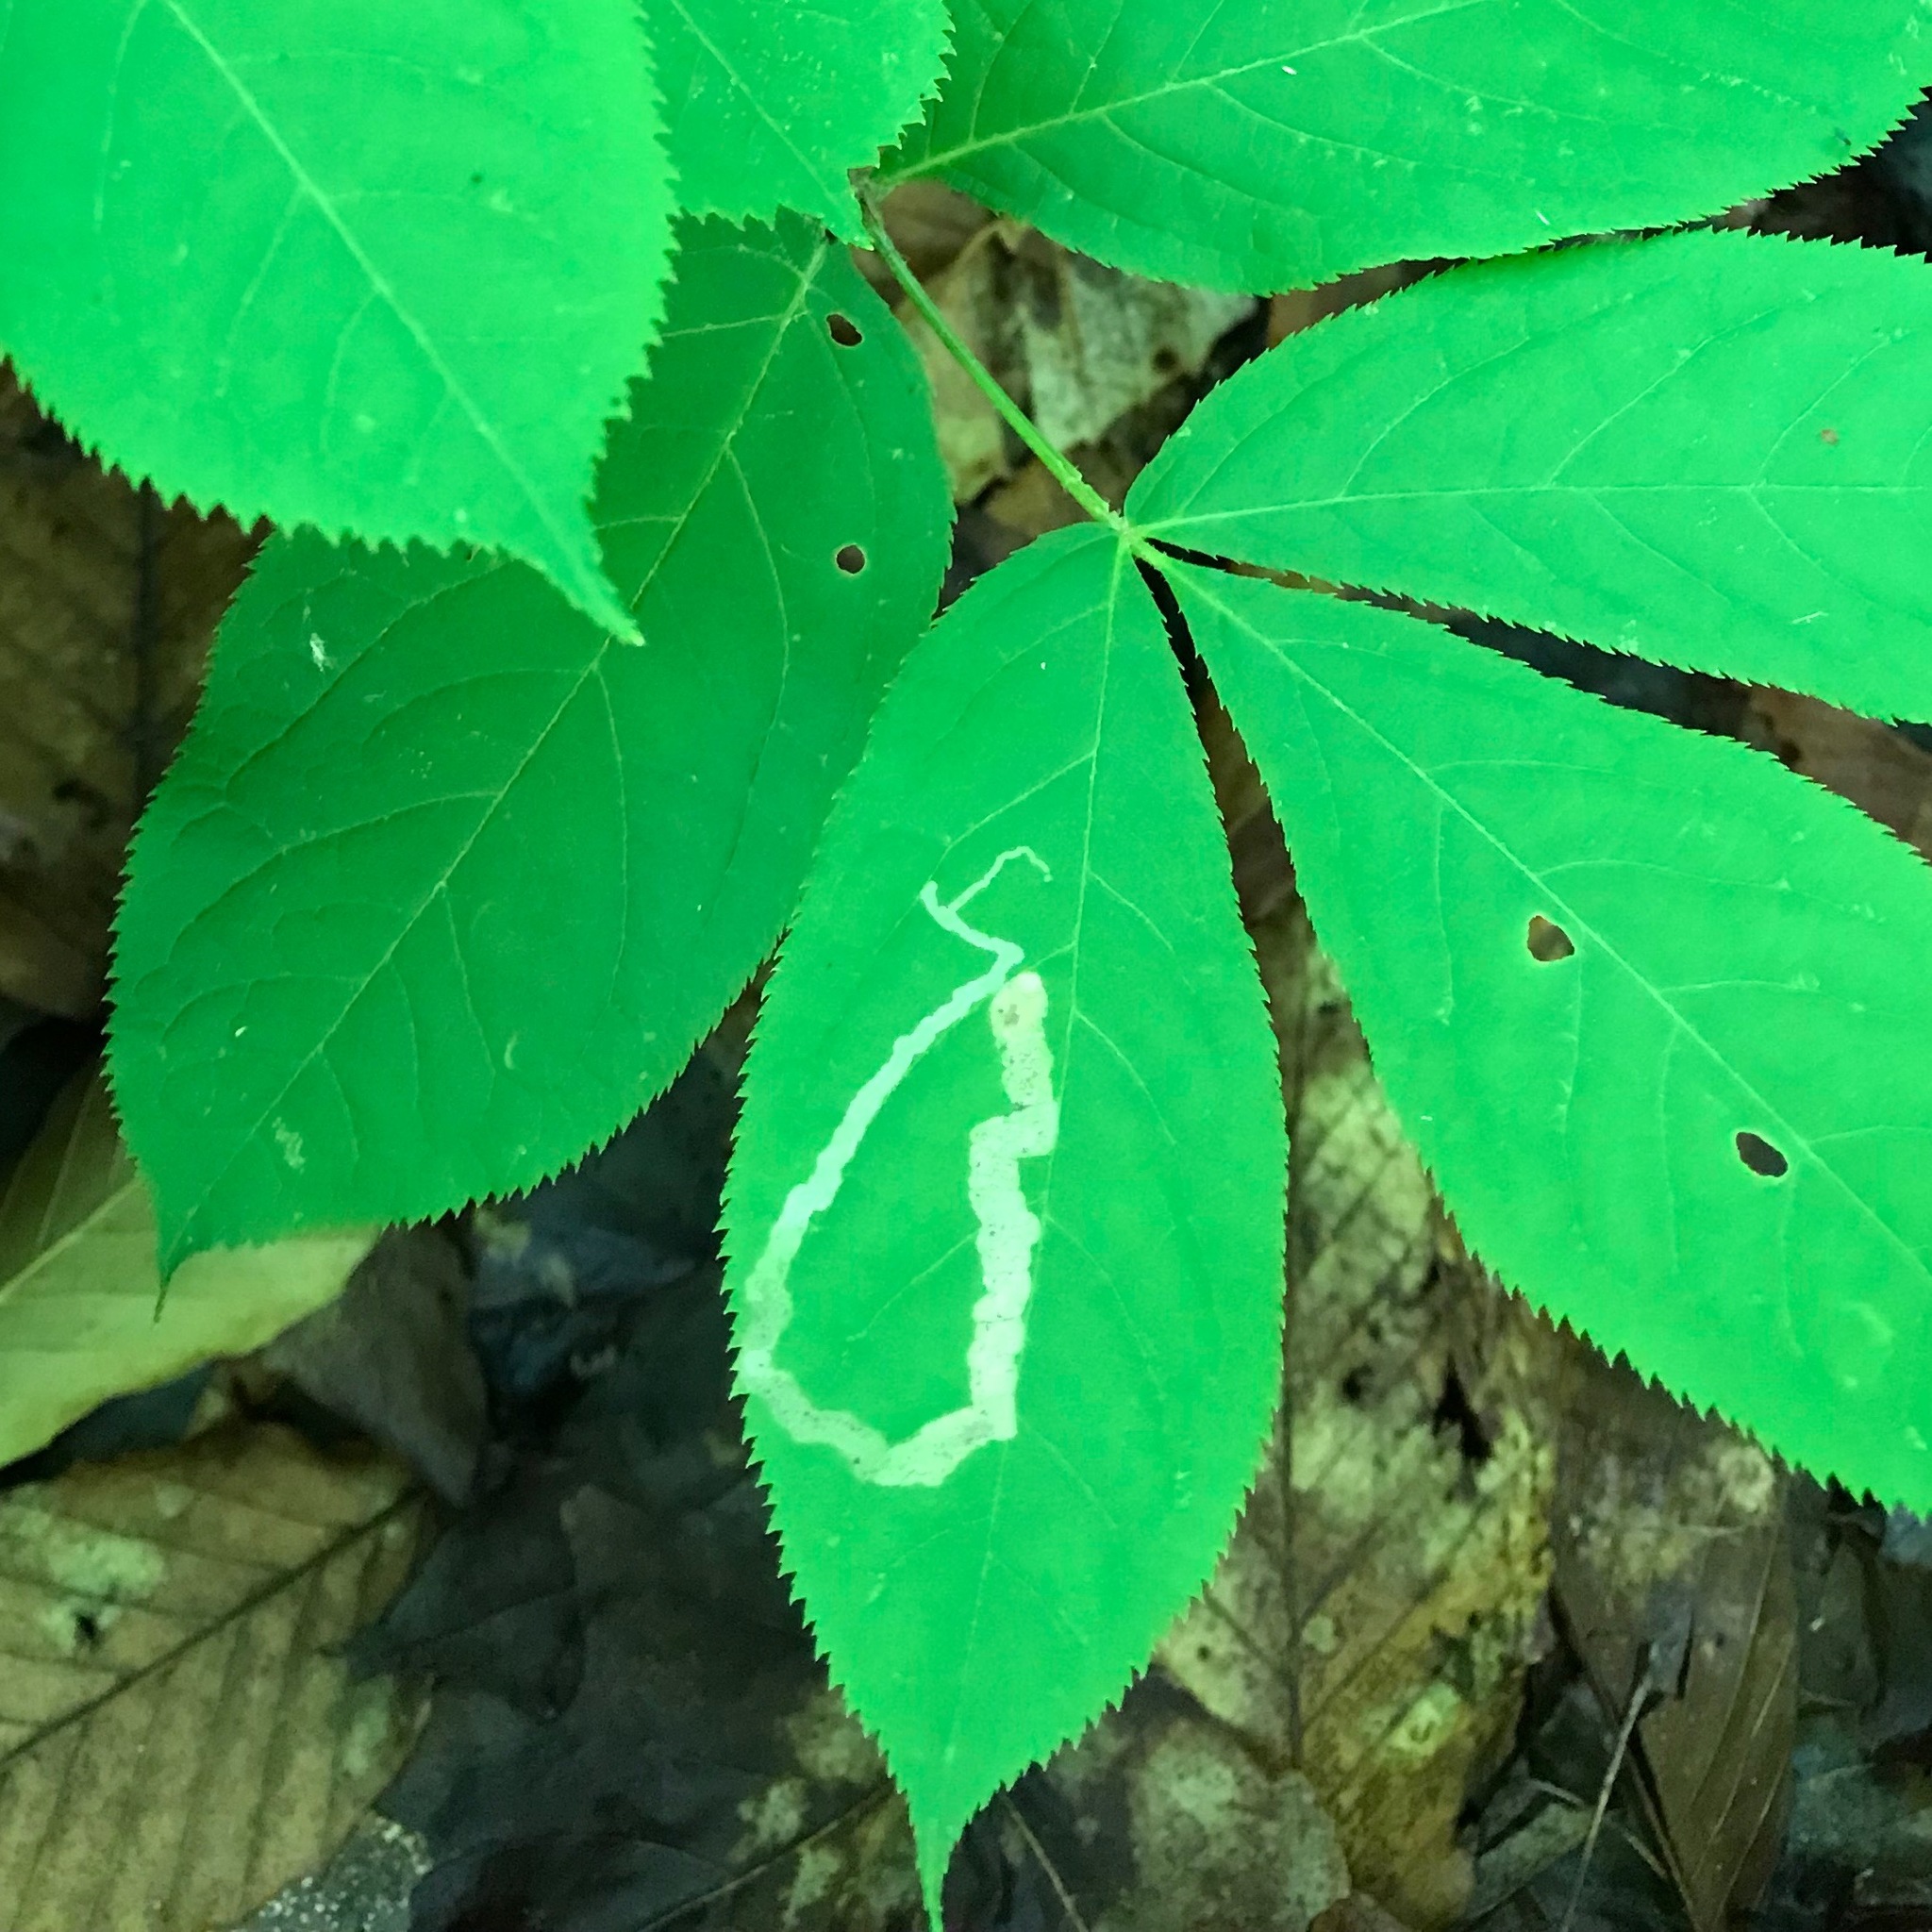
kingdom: Animalia
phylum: Arthropoda
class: Insecta
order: Diptera
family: Agromyzidae
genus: Phytomyza
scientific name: Phytomyza aralivora
